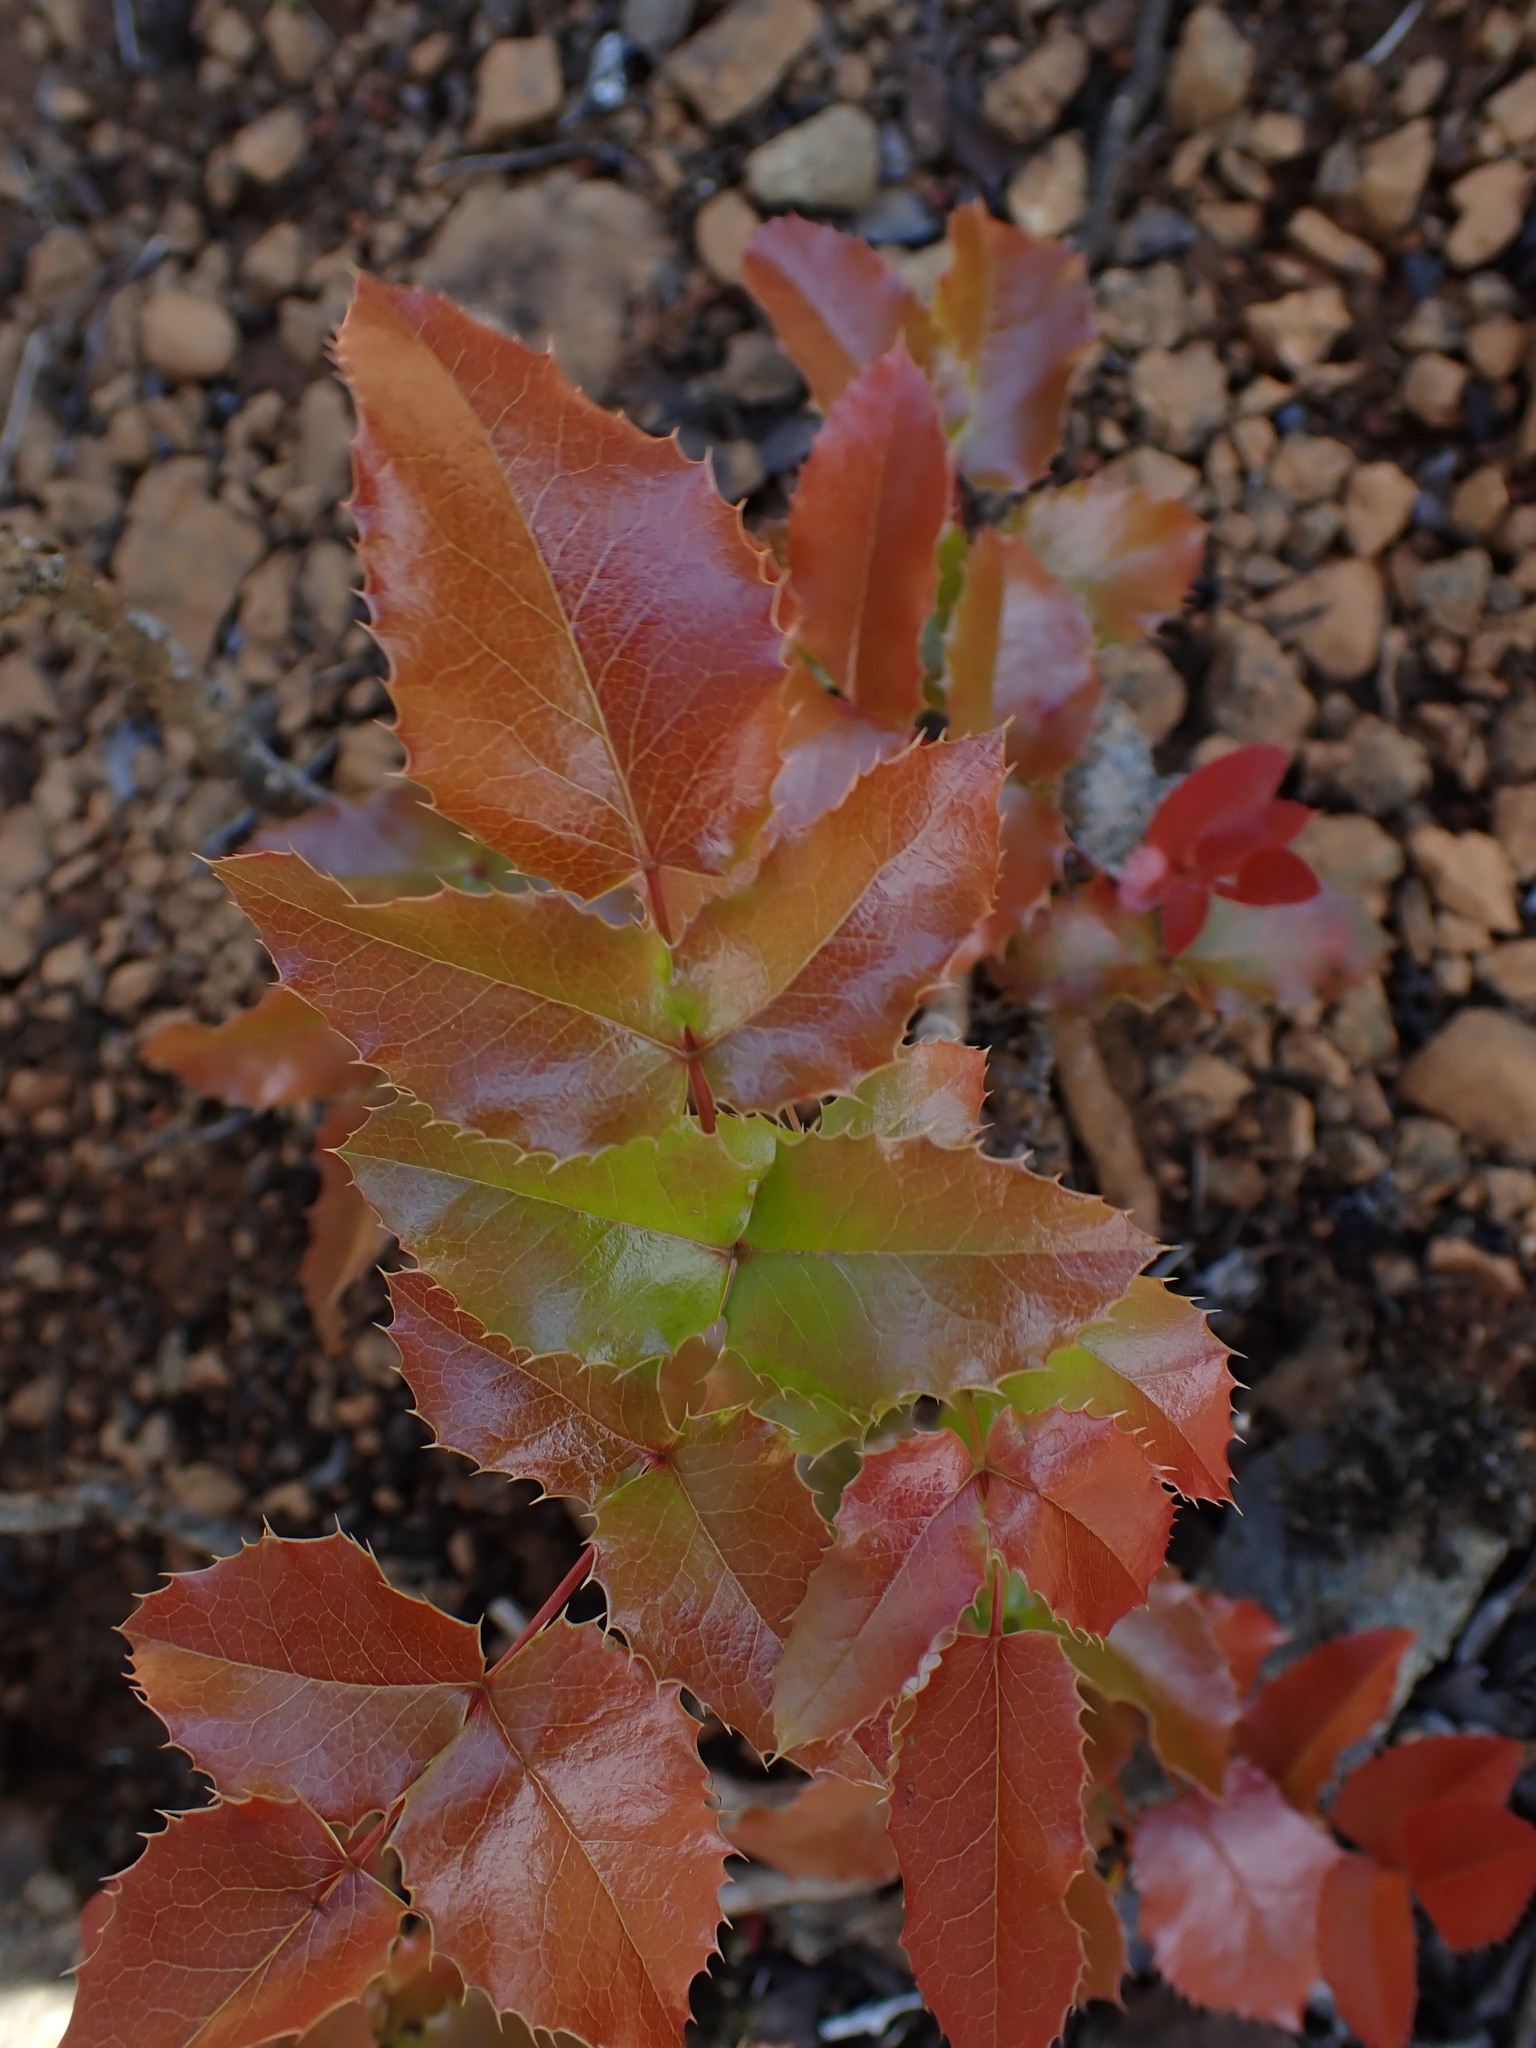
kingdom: Plantae
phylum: Tracheophyta
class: Magnoliopsida
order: Ranunculales
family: Berberidaceae
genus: Mahonia
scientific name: Mahonia aquifolium
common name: Oregon-grape
